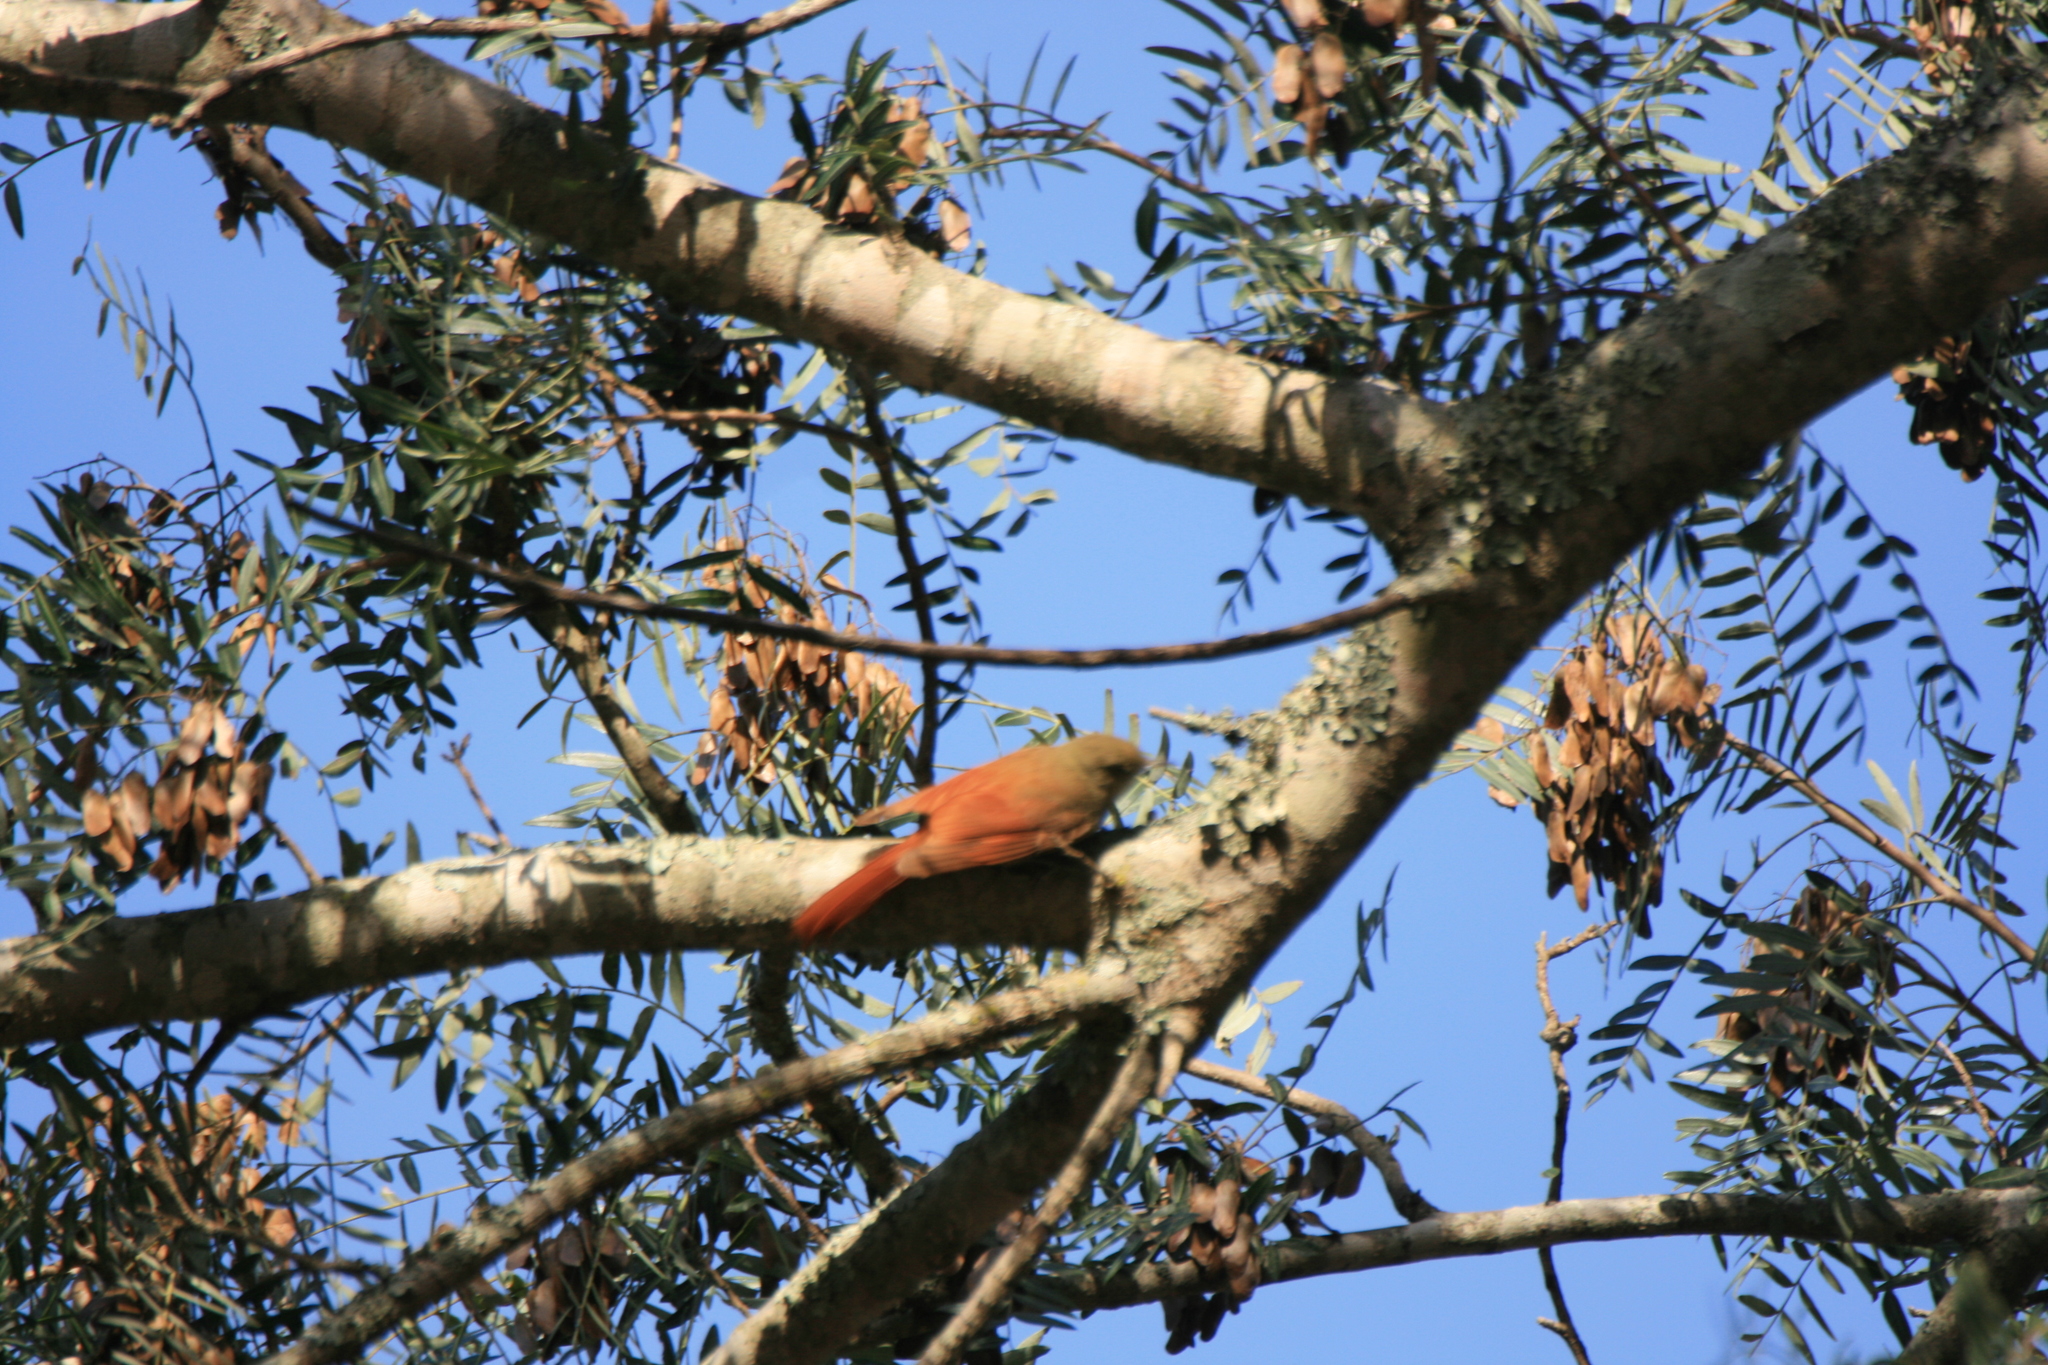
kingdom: Animalia
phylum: Chordata
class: Aves
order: Passeriformes
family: Furnariidae
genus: Sittasomus
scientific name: Sittasomus griseicapillus
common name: Olivaceous woodcreeper
